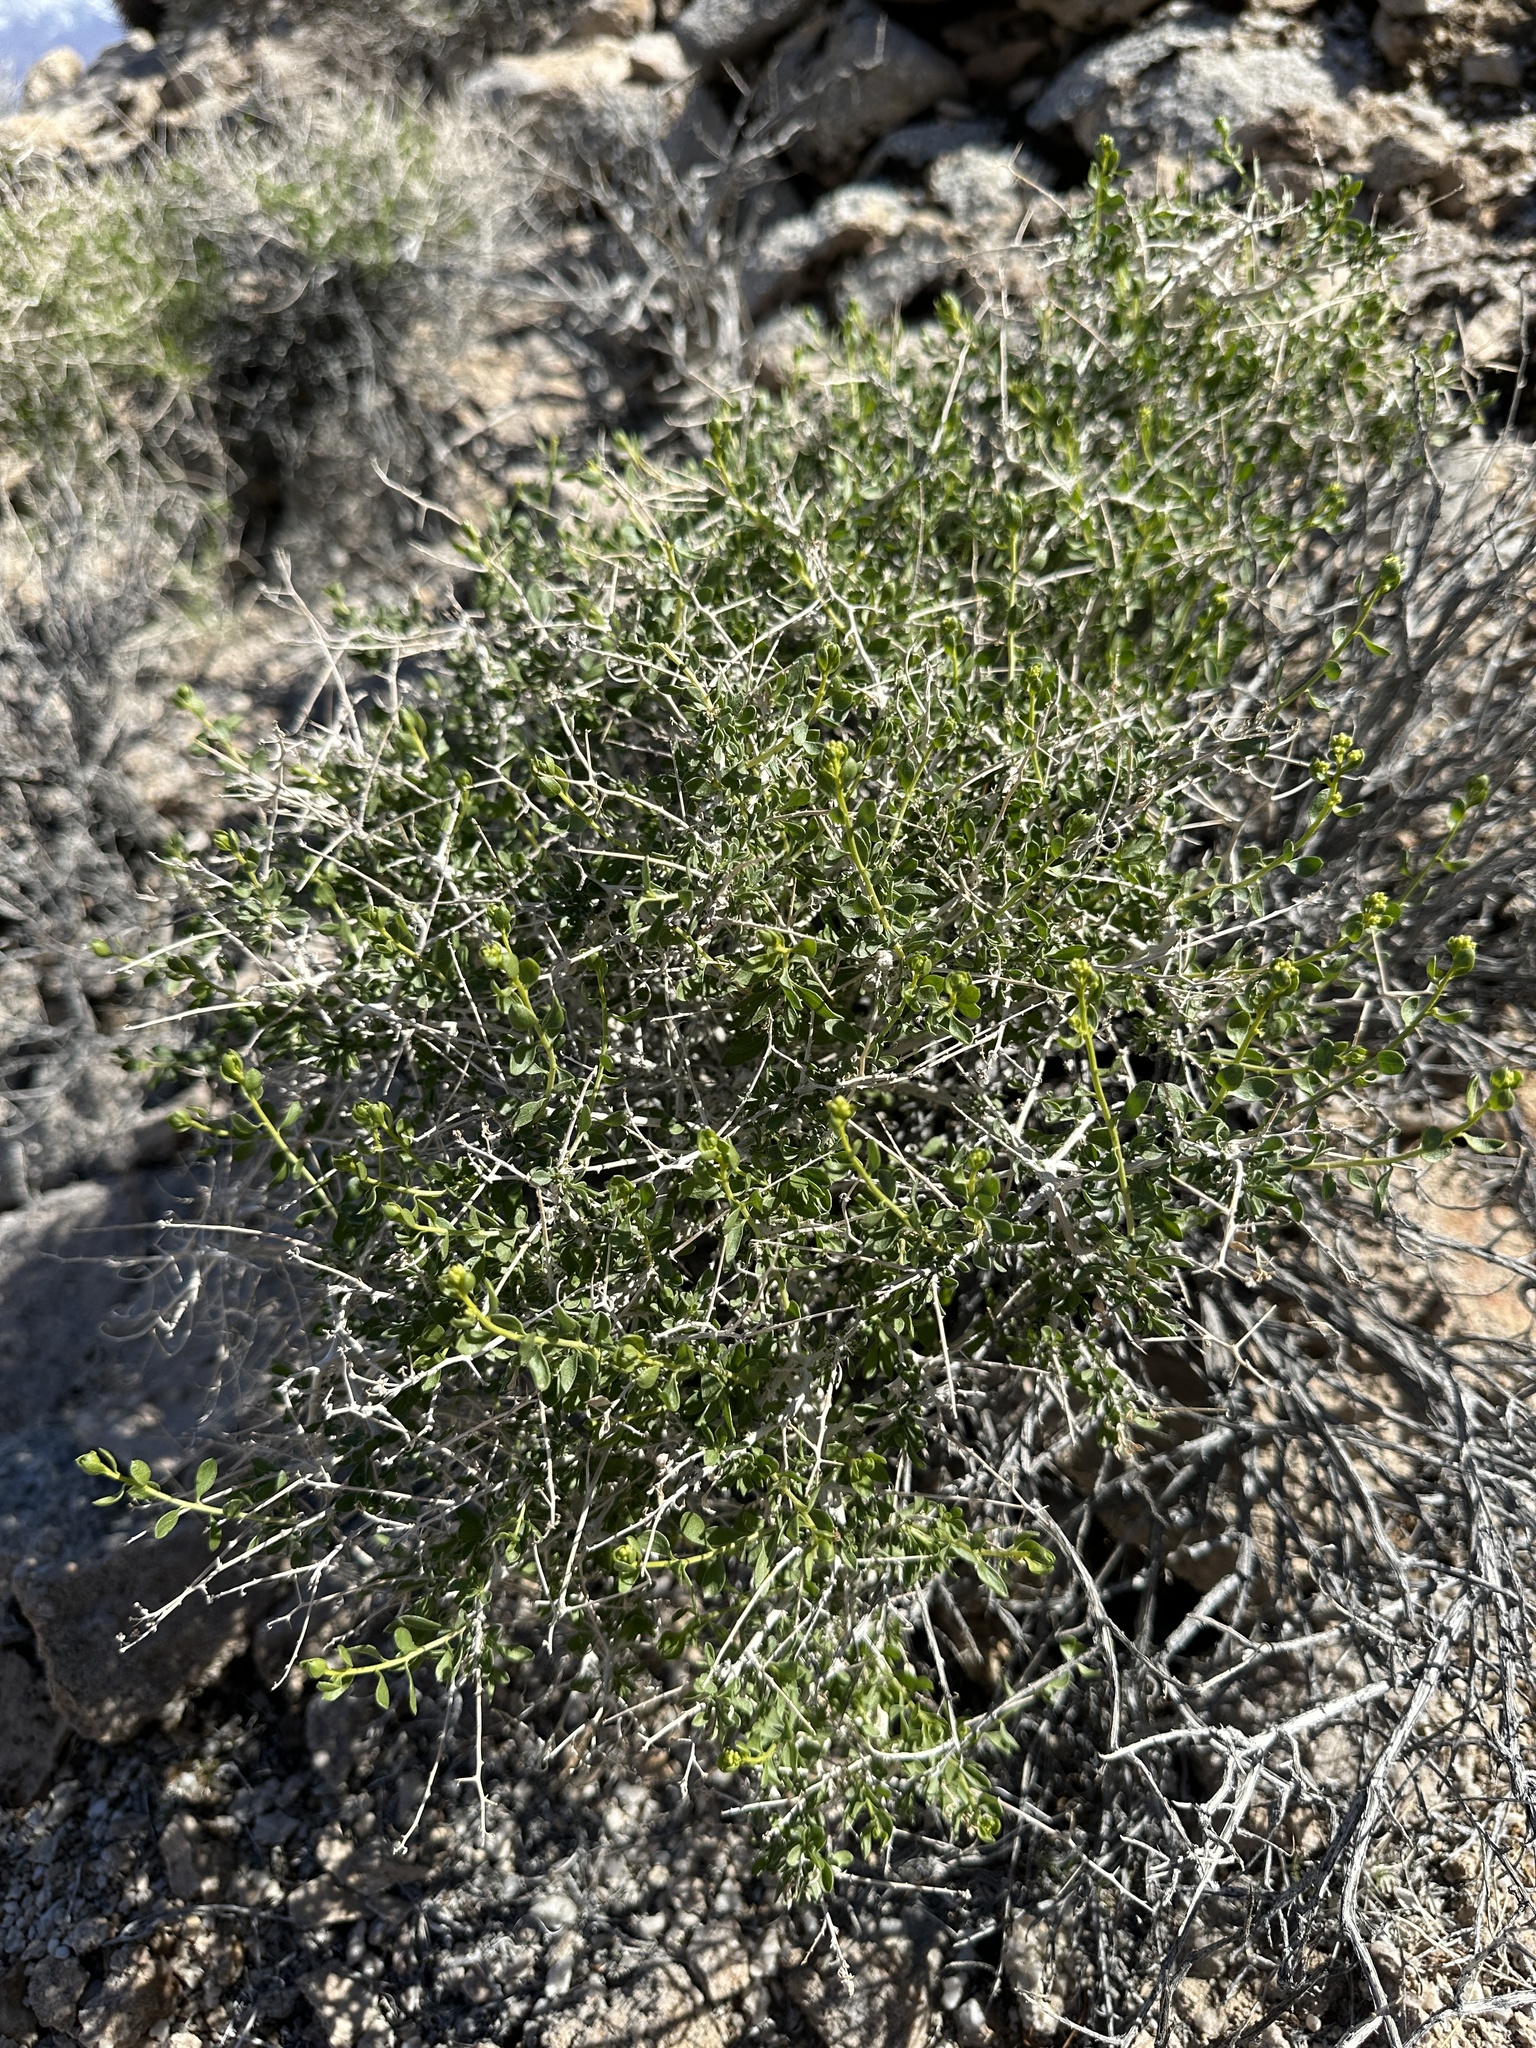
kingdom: Plantae
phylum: Tracheophyta
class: Magnoliopsida
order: Asterales
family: Asteraceae
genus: Amphipappus
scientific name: Amphipappus fremontii
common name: Fremont's chaffbush
